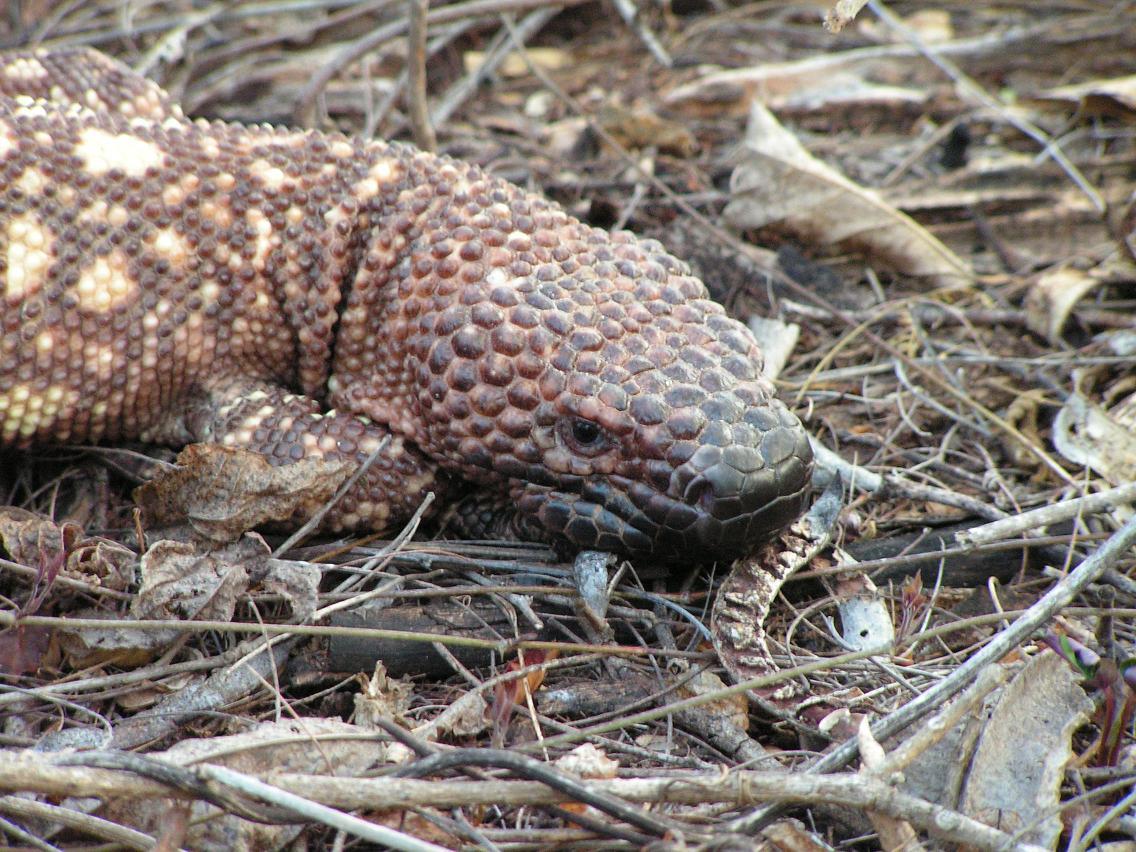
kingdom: Animalia
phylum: Chordata
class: Squamata
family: Helodermatidae
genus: Heloderma
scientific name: Heloderma horridum
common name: Mexican beaded lizard
